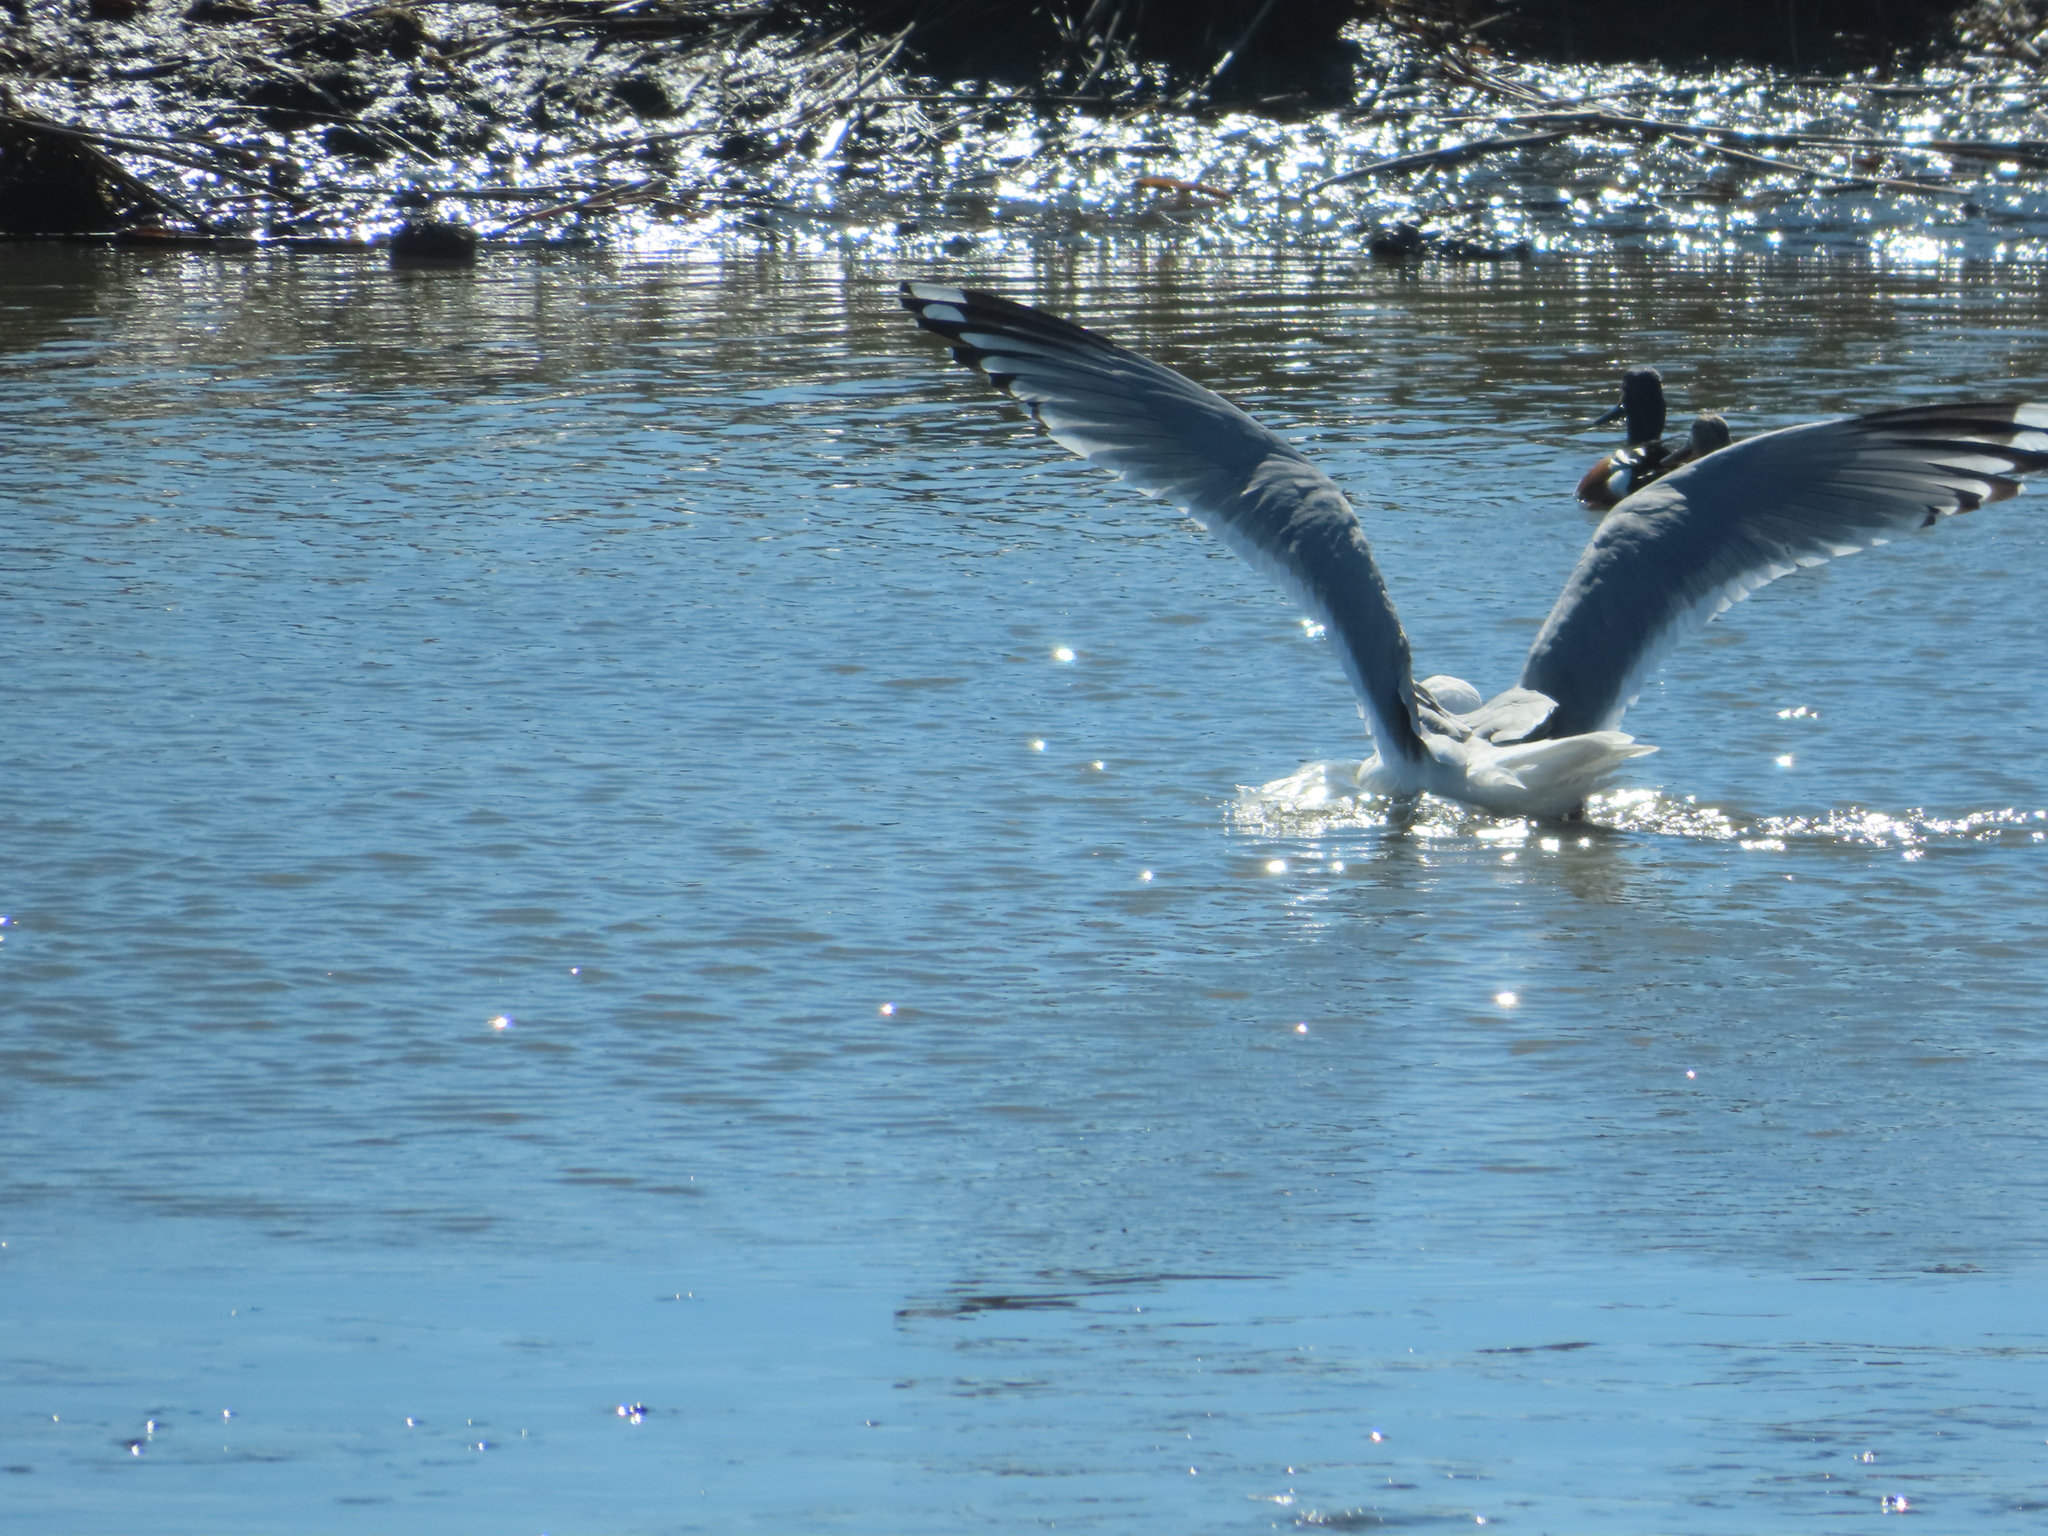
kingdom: Animalia
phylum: Chordata
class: Aves
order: Anseriformes
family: Anatidae
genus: Branta
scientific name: Branta canadensis
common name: Canada goose
